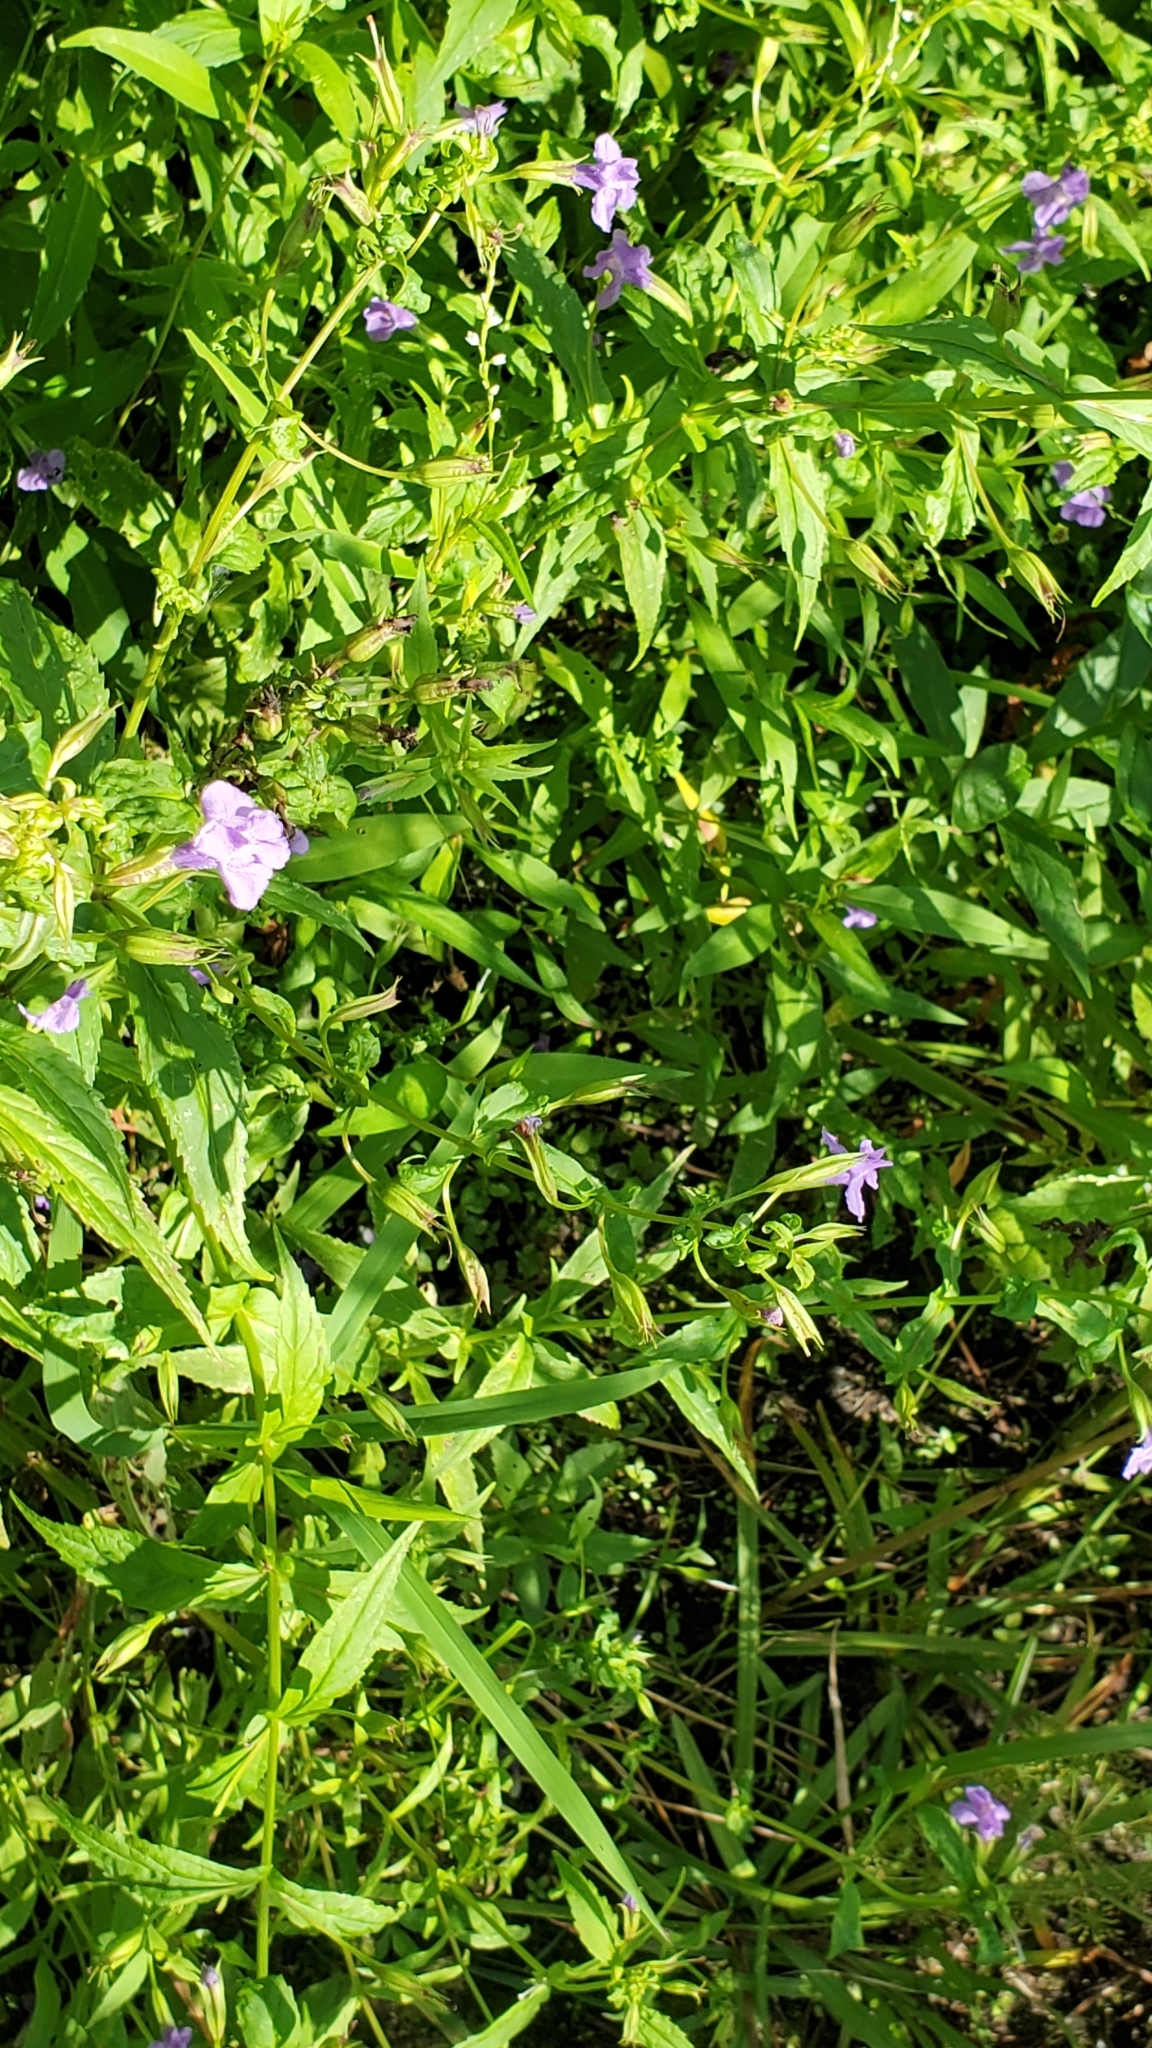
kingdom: Plantae
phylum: Tracheophyta
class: Magnoliopsida
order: Lamiales
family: Phrymaceae
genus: Mimulus
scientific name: Mimulus ringens
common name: Allegheny monkeyflower
